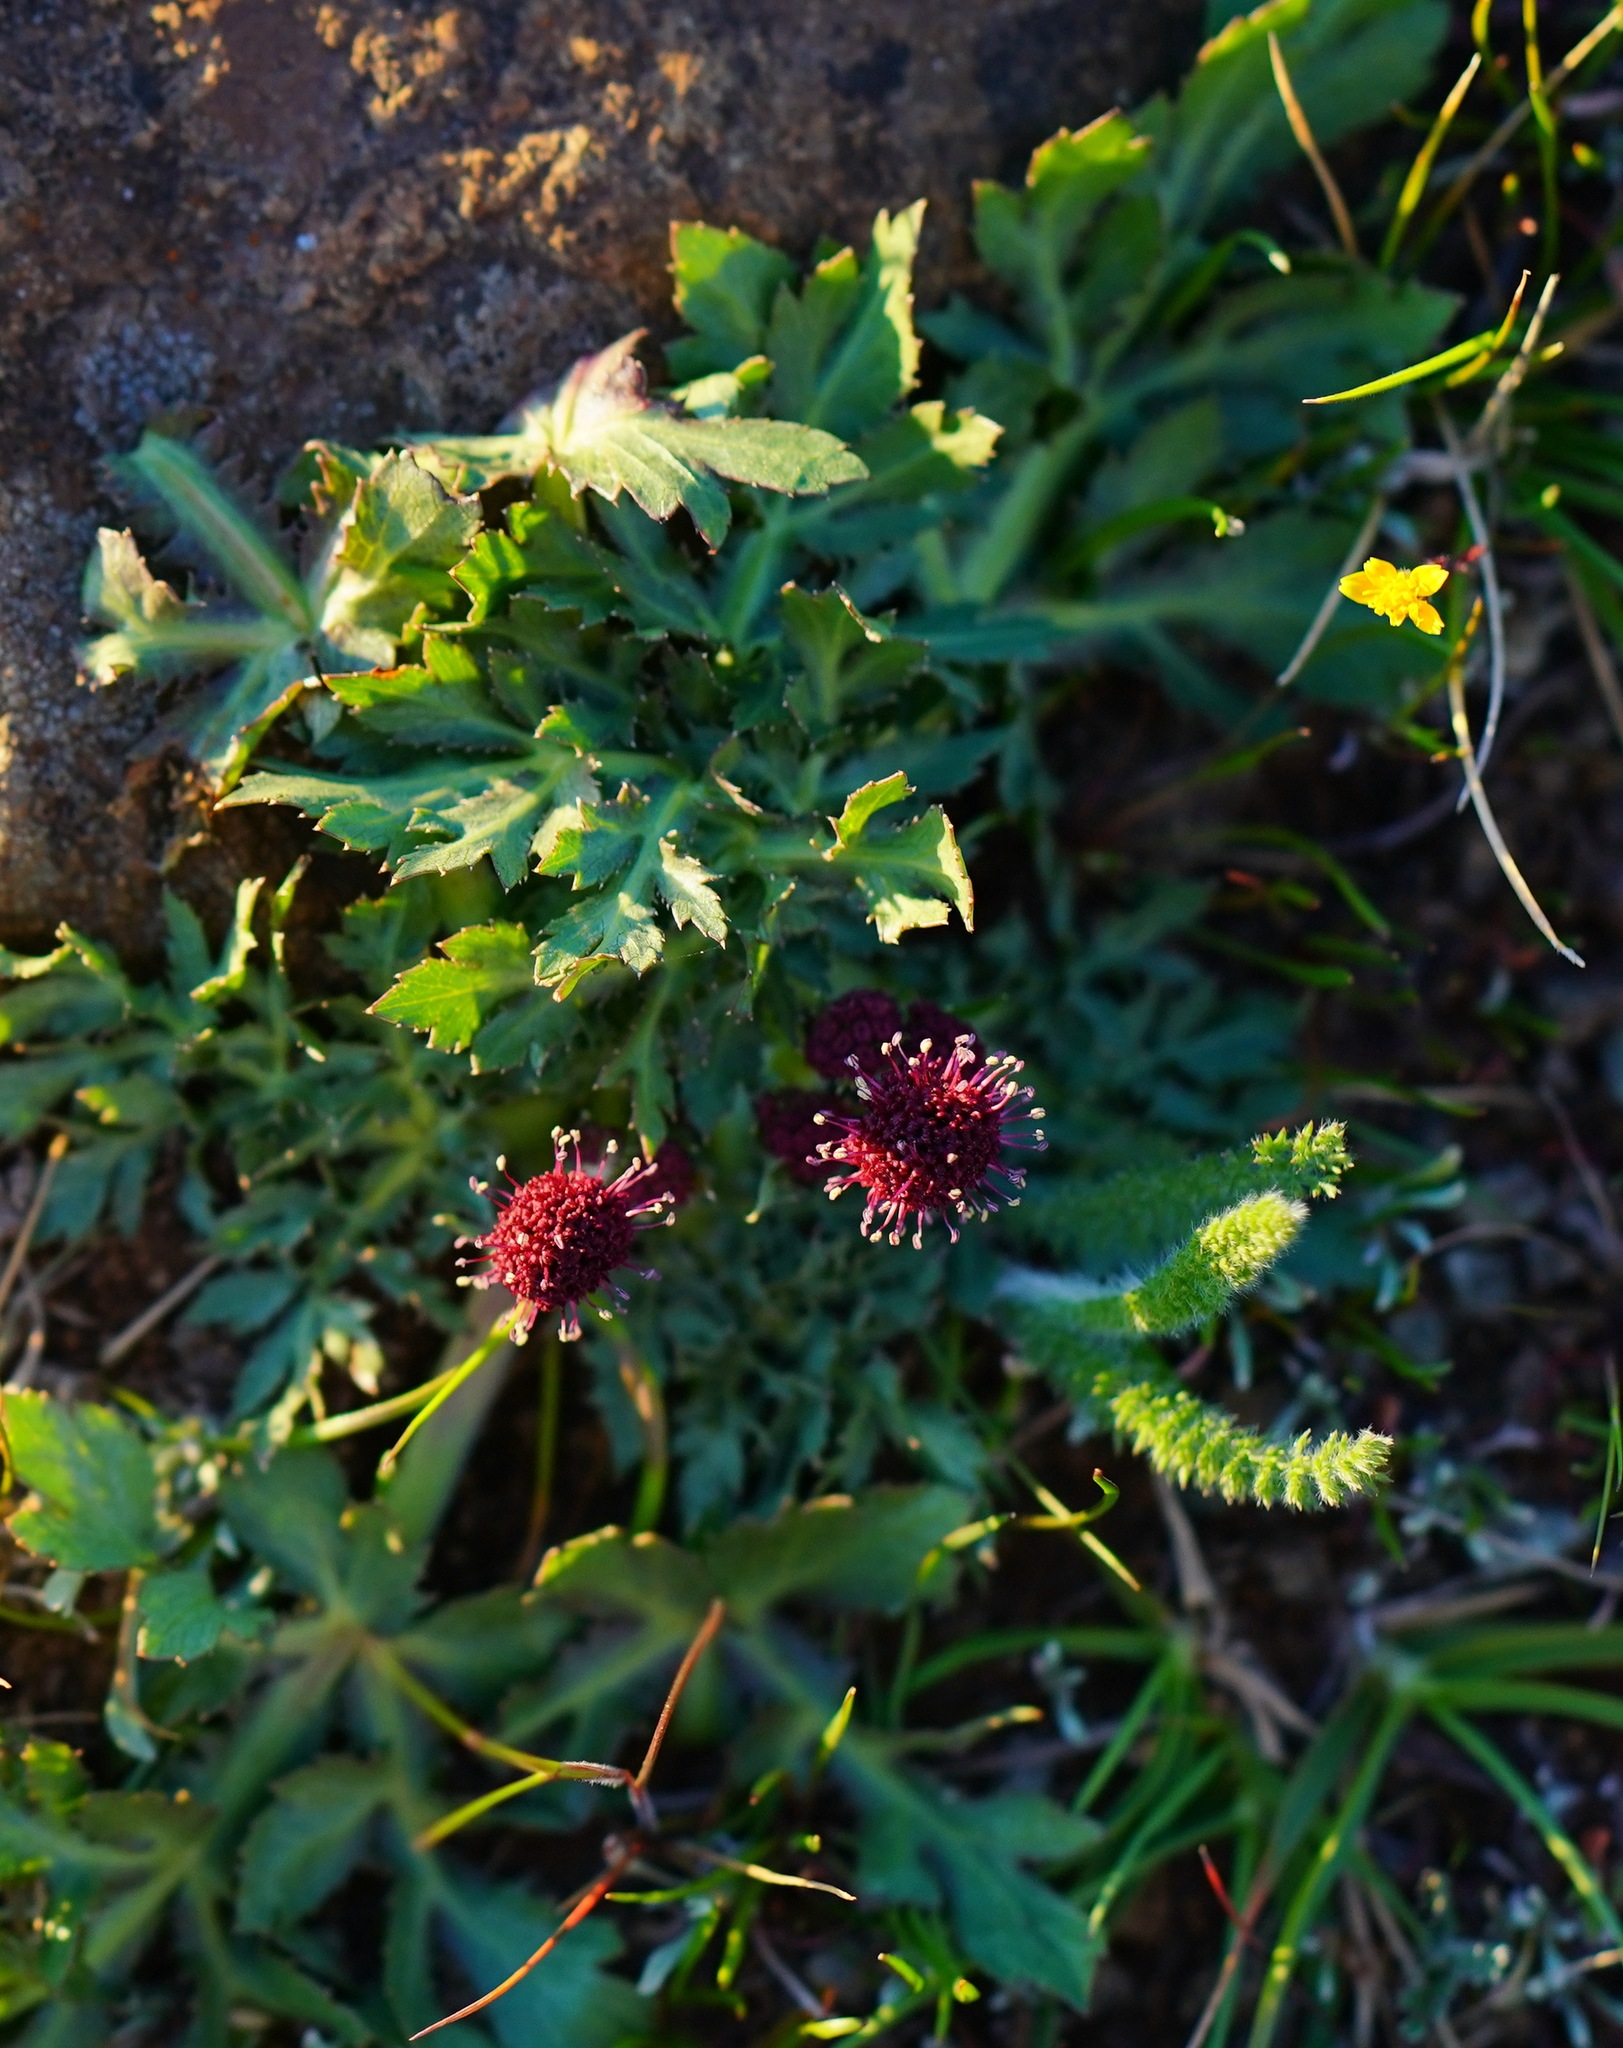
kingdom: Plantae
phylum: Tracheophyta
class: Magnoliopsida
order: Apiales
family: Apiaceae
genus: Sanicula
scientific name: Sanicula bipinnatifida
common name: Shoe-buttons
